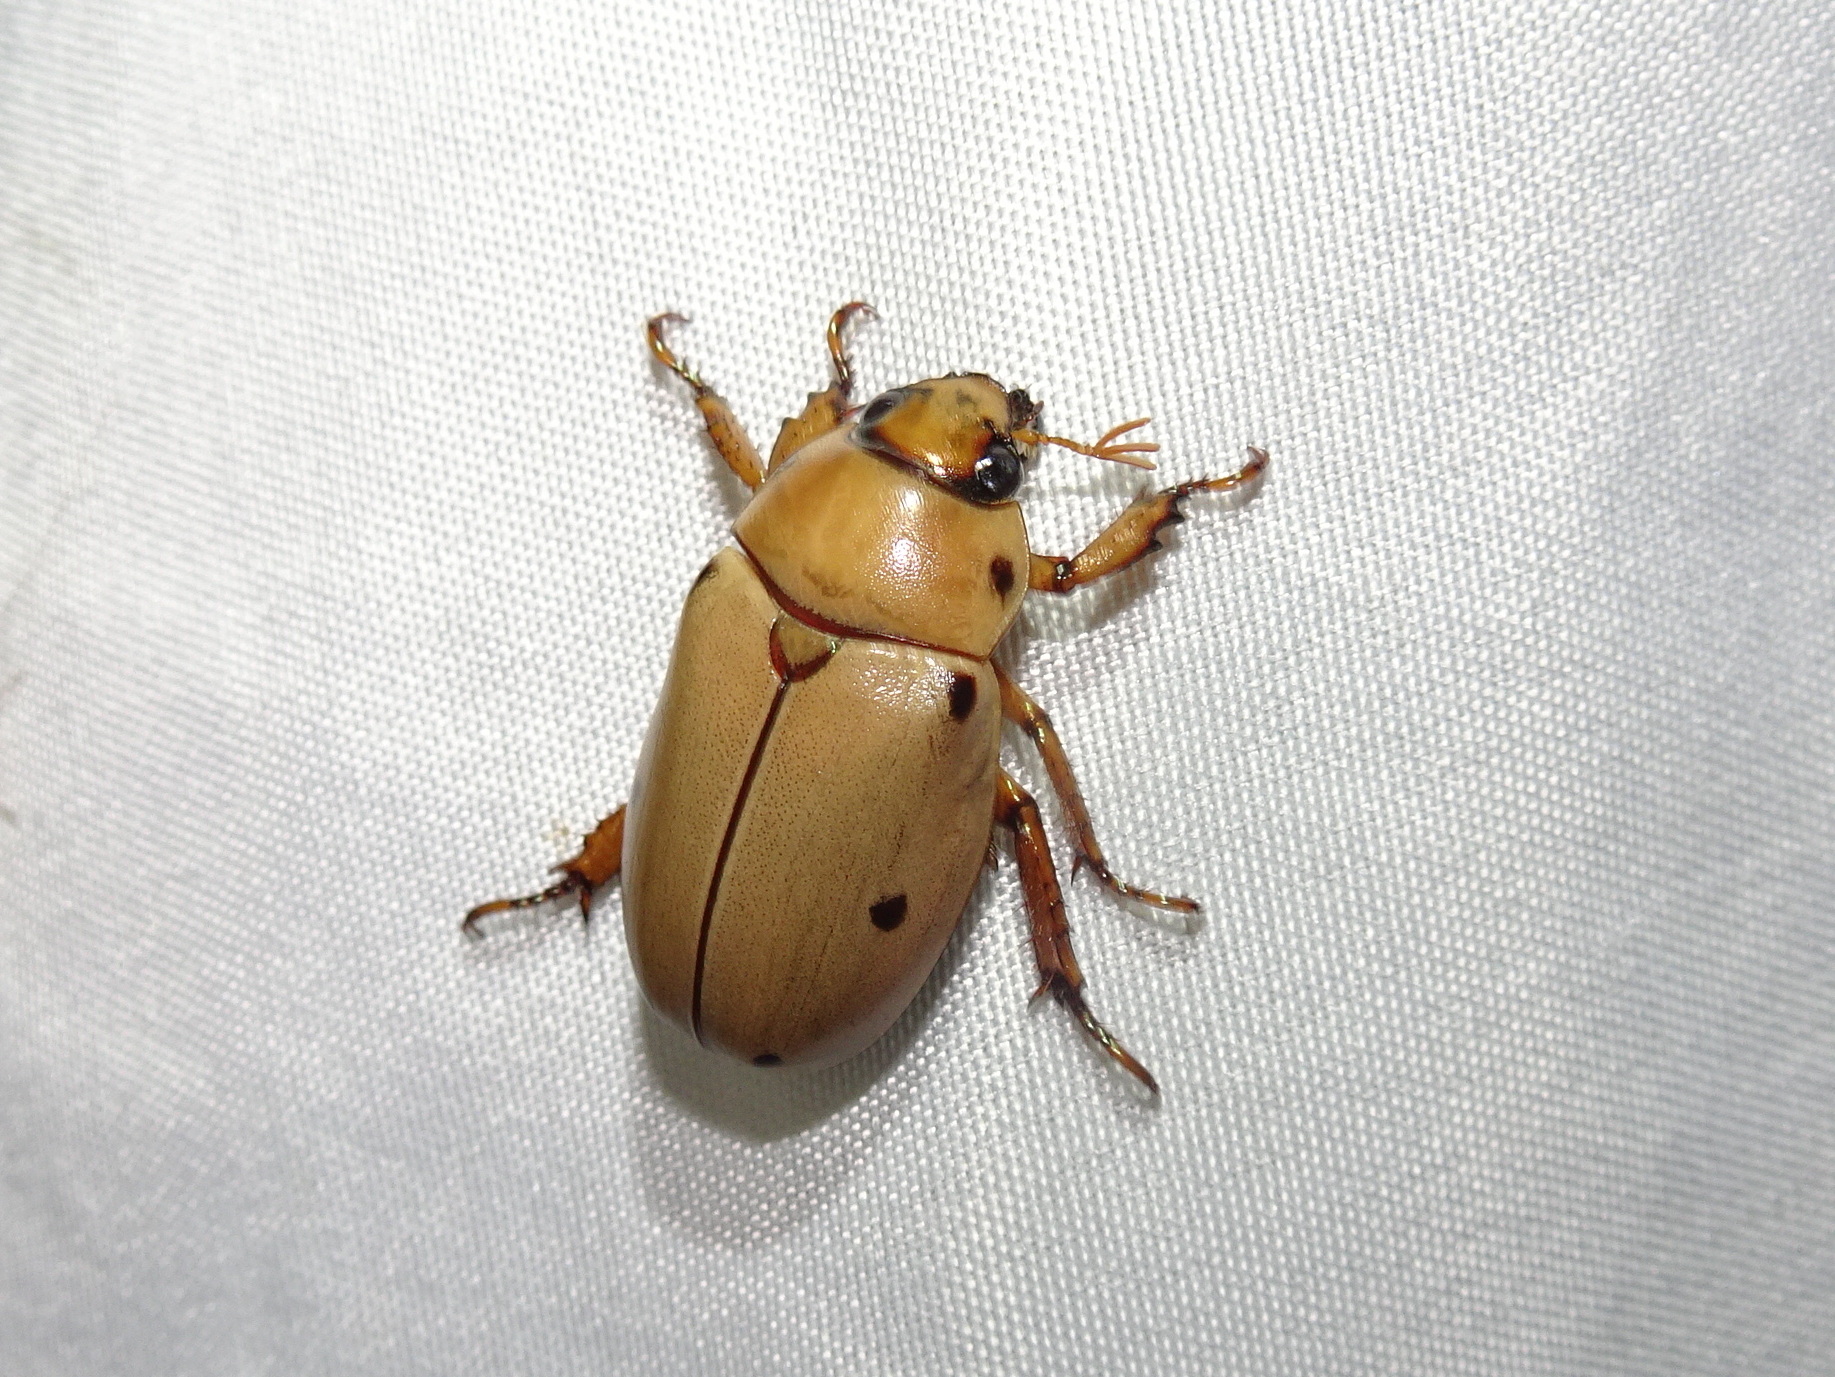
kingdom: Animalia
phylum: Arthropoda
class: Insecta
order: Coleoptera
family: Scarabaeidae
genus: Pelidnota
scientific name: Pelidnota punctata
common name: Grapevine beetle
